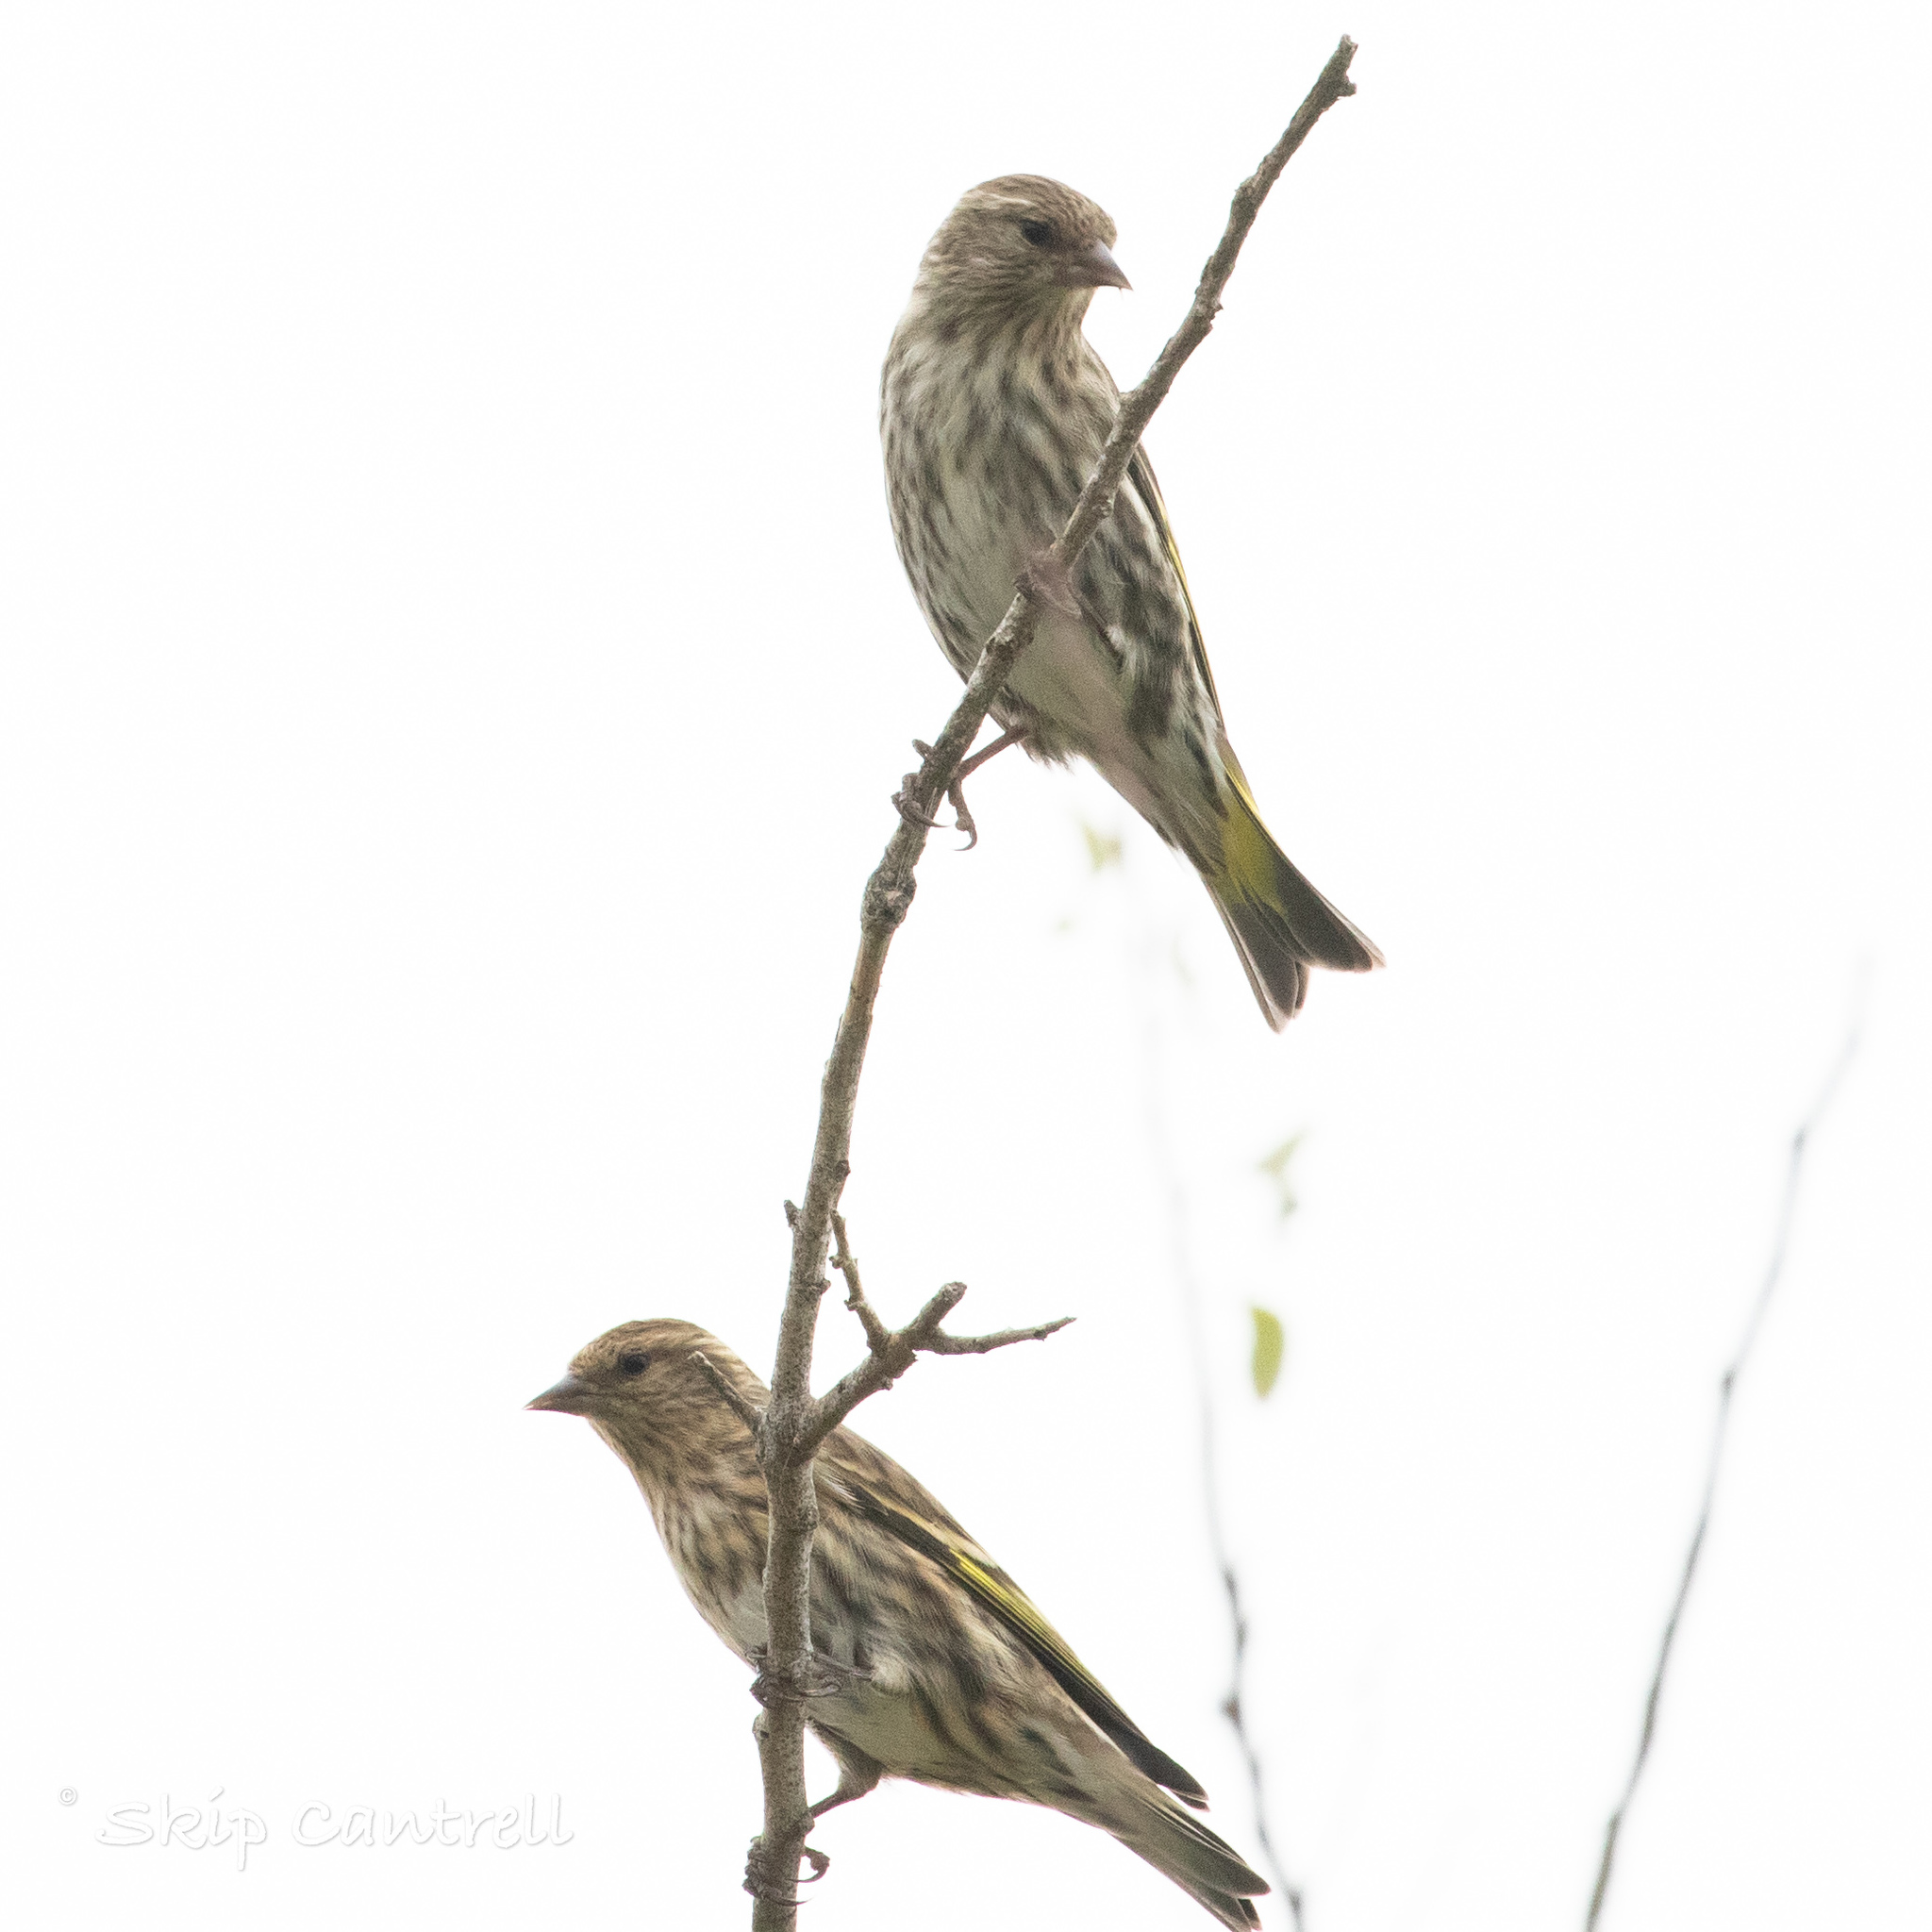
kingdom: Animalia
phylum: Chordata
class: Aves
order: Passeriformes
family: Fringillidae
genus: Spinus
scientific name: Spinus pinus
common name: Pine siskin
